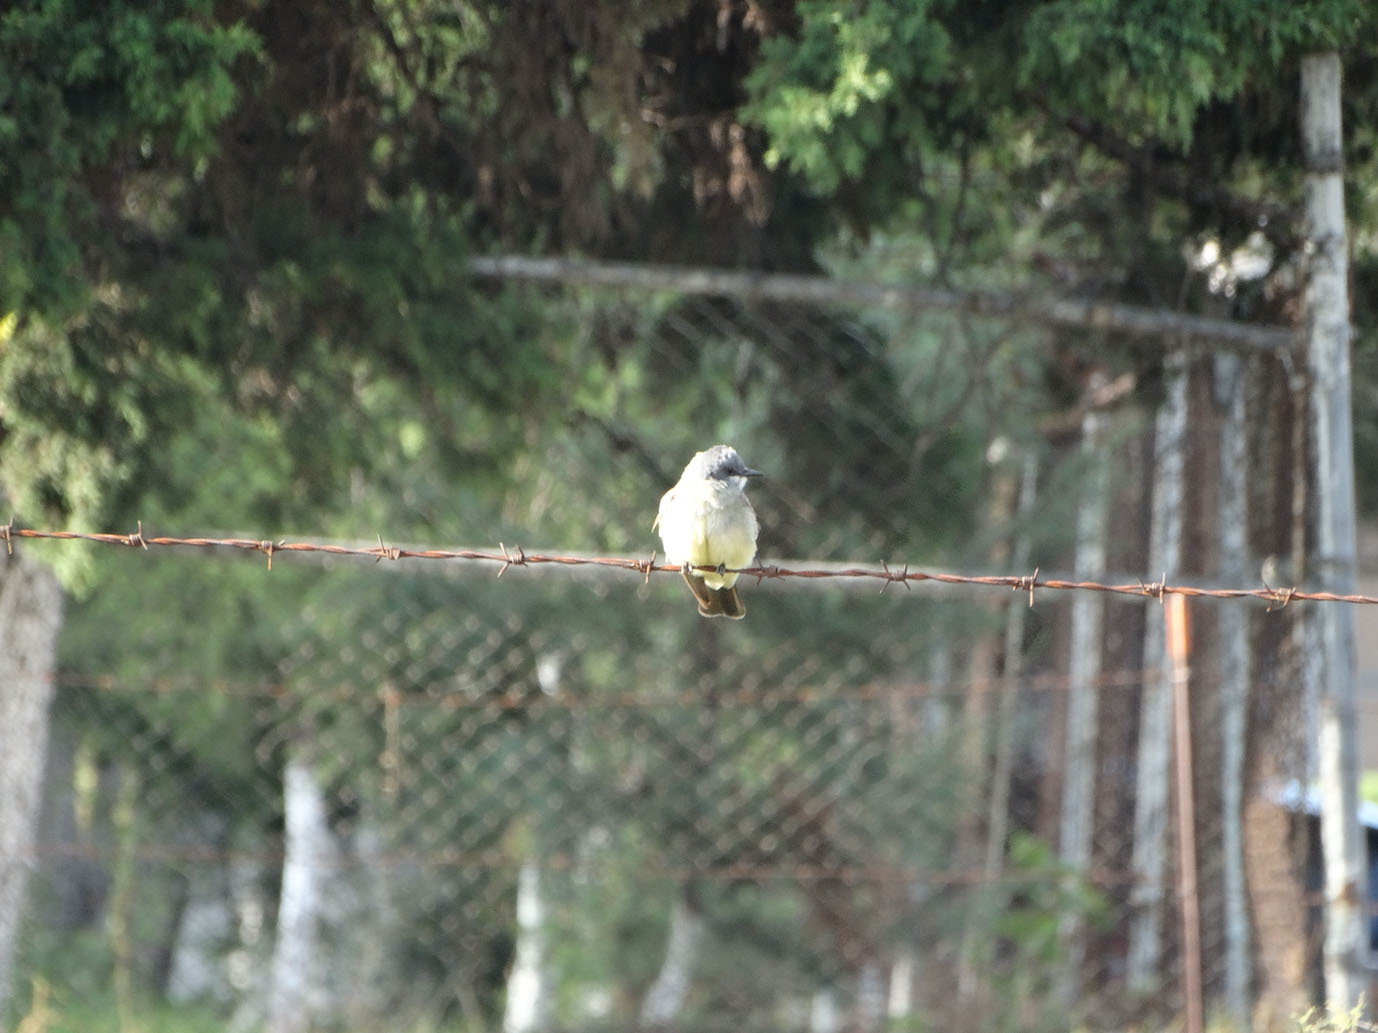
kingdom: Animalia
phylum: Chordata
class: Aves
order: Passeriformes
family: Tyrannidae
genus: Tyrannus
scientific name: Tyrannus vociferans
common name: Cassin's kingbird
